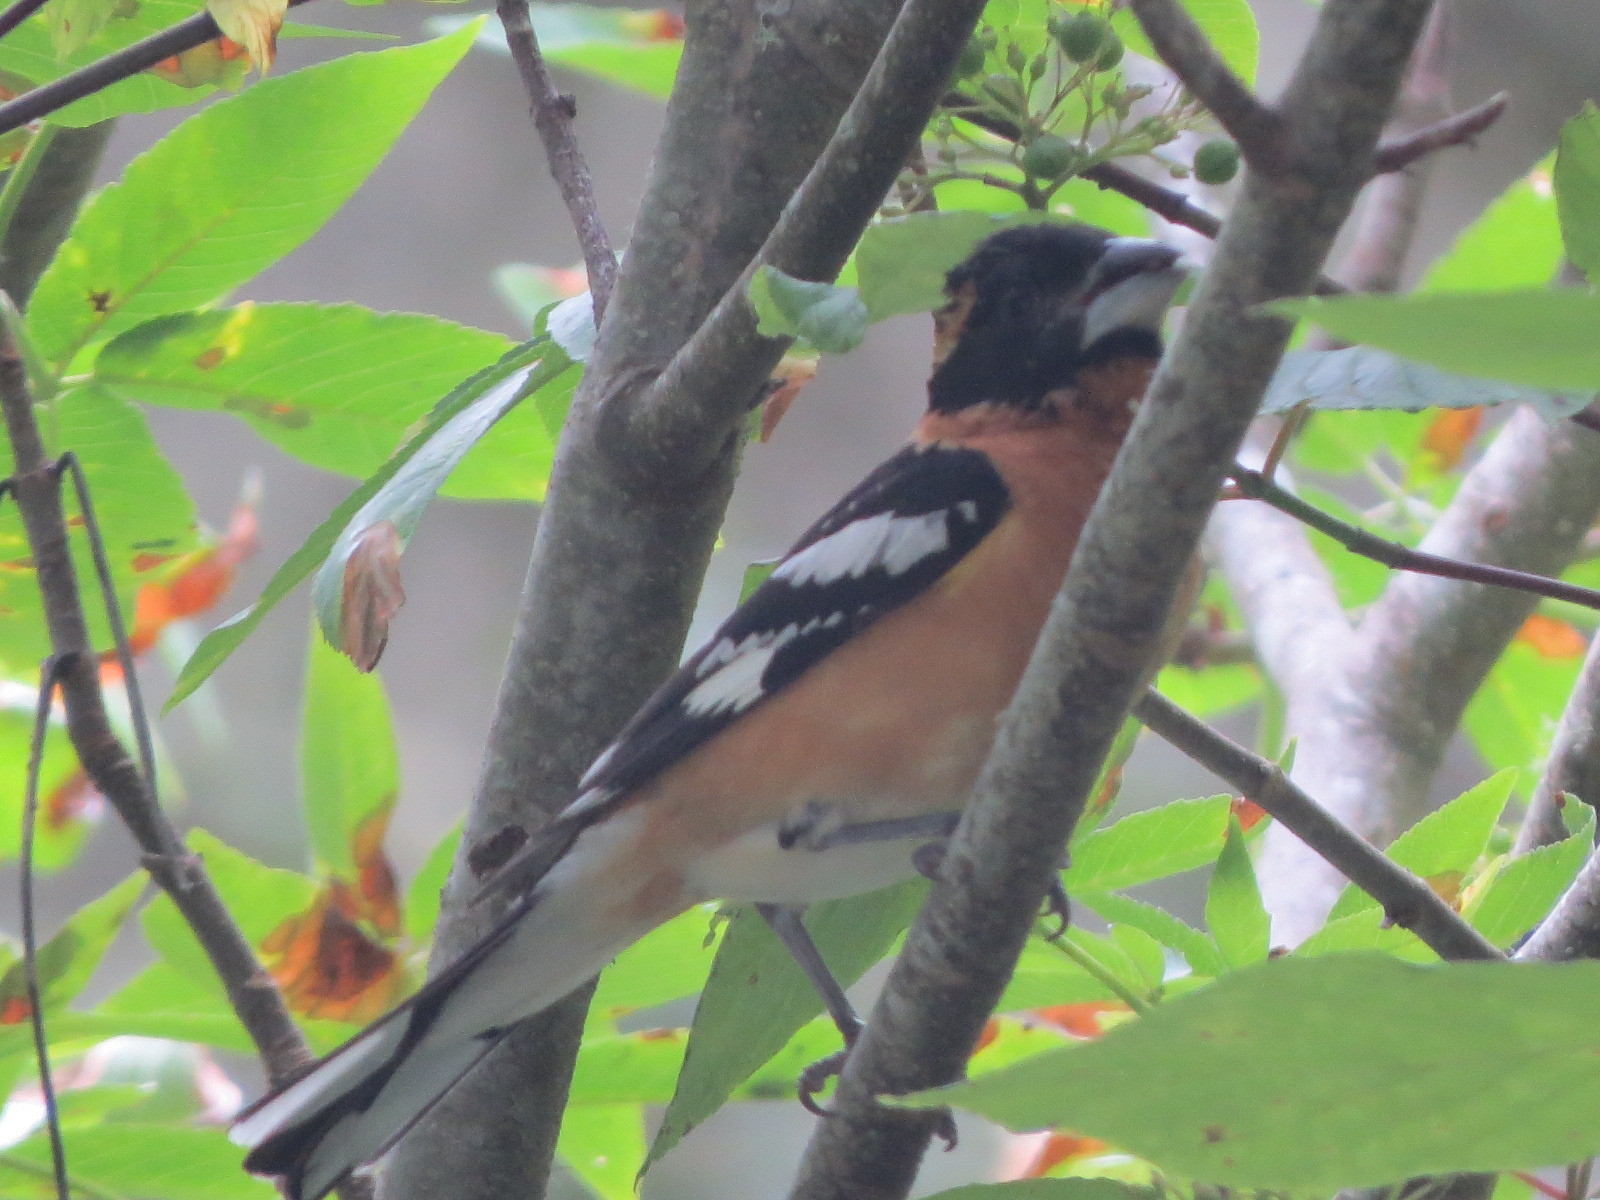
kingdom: Animalia
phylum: Chordata
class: Aves
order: Passeriformes
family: Cardinalidae
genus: Pheucticus
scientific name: Pheucticus melanocephalus
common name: Black-headed grosbeak
